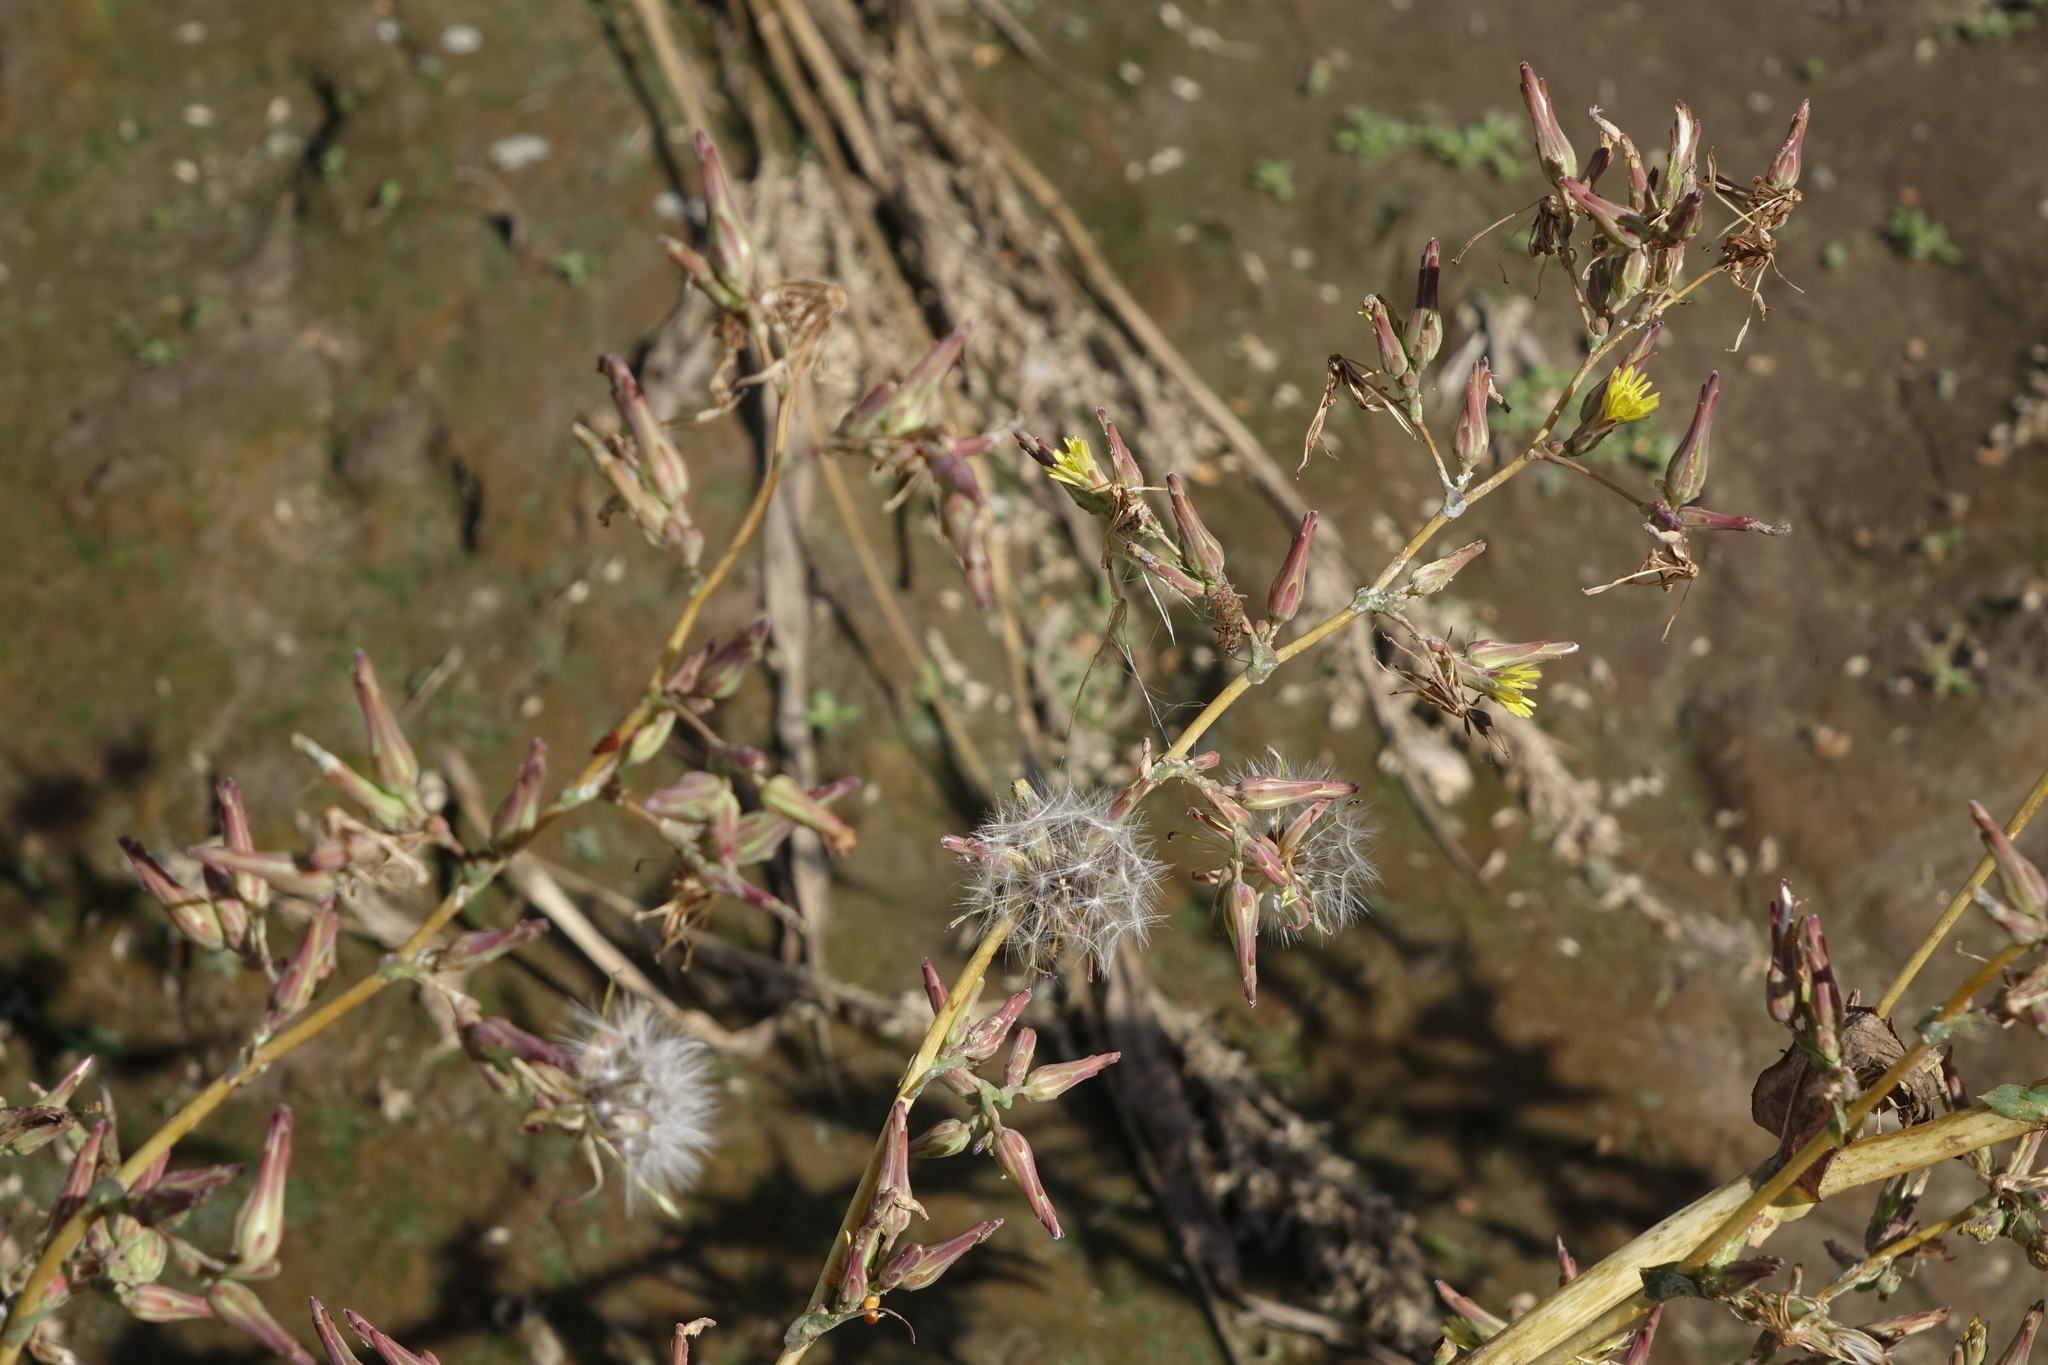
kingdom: Plantae
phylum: Tracheophyta
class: Magnoliopsida
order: Asterales
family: Asteraceae
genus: Lactuca
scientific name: Lactuca serriola
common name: Prickly lettuce
